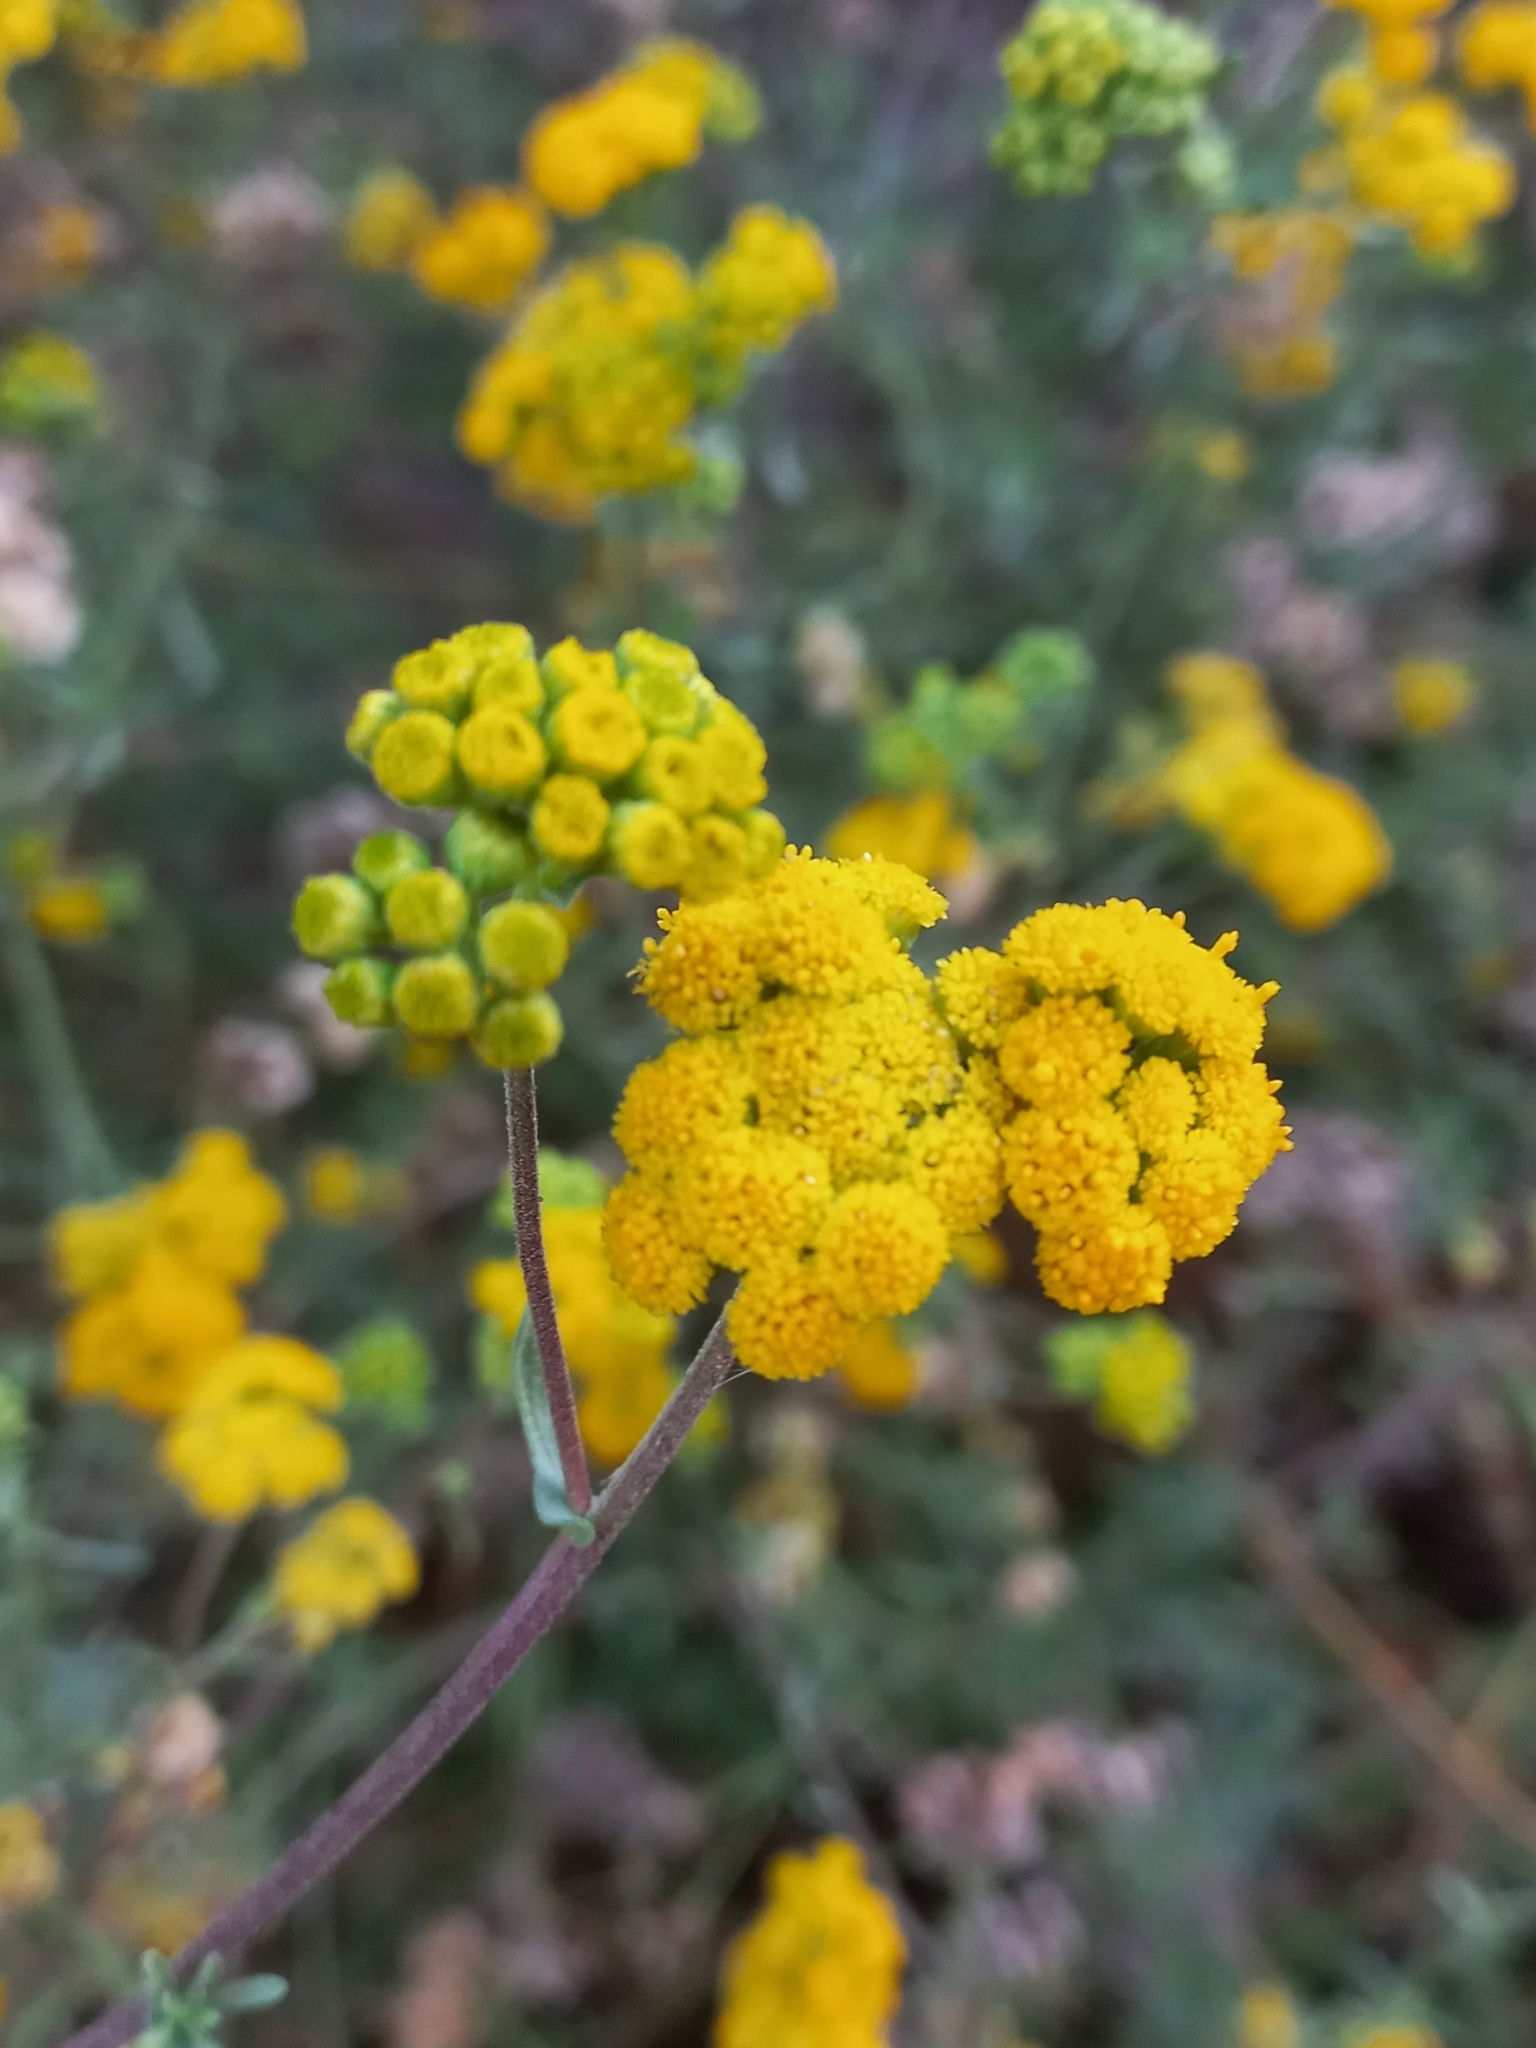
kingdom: Plantae
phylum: Tracheophyta
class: Magnoliopsida
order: Asterales
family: Asteraceae
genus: Athanasia
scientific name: Athanasia trifurcata
